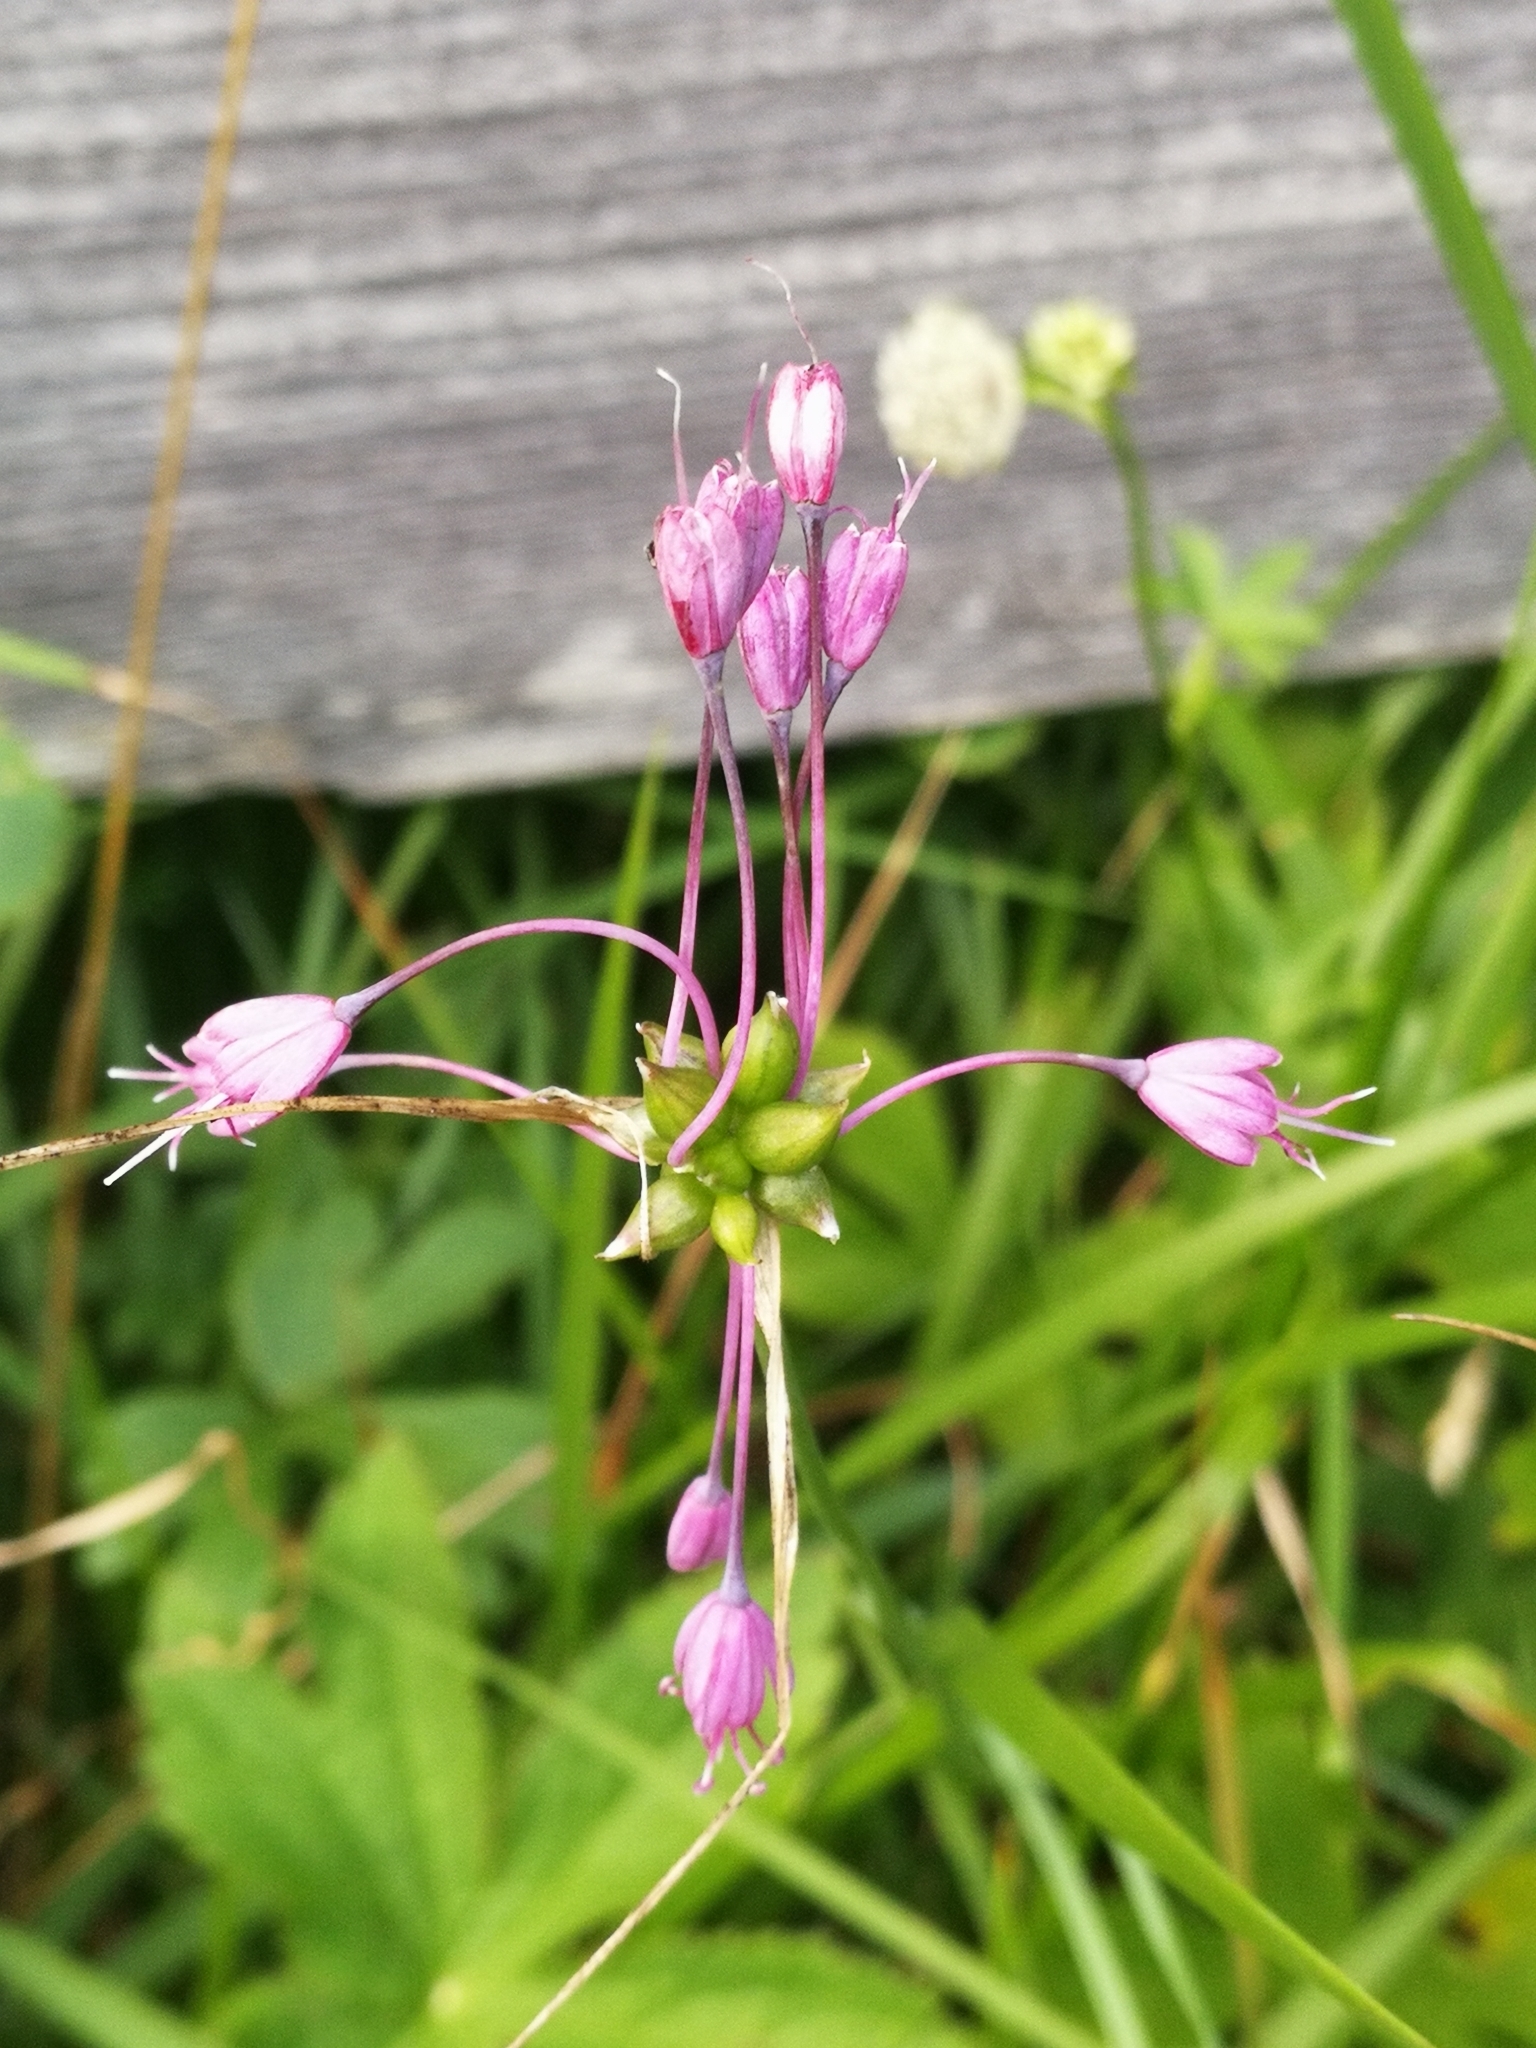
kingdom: Plantae
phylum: Tracheophyta
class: Liliopsida
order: Asparagales
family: Amaryllidaceae
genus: Allium
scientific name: Allium carinatum
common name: Keeled garlic
